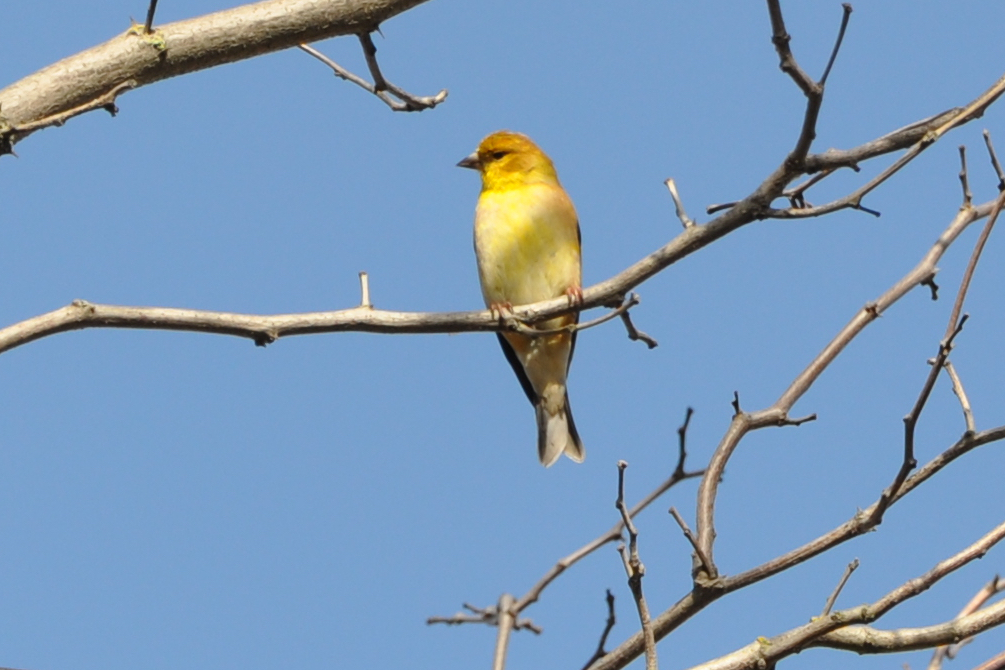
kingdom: Animalia
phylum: Chordata
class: Aves
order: Passeriformes
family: Fringillidae
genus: Spinus
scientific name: Spinus tristis
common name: American goldfinch
